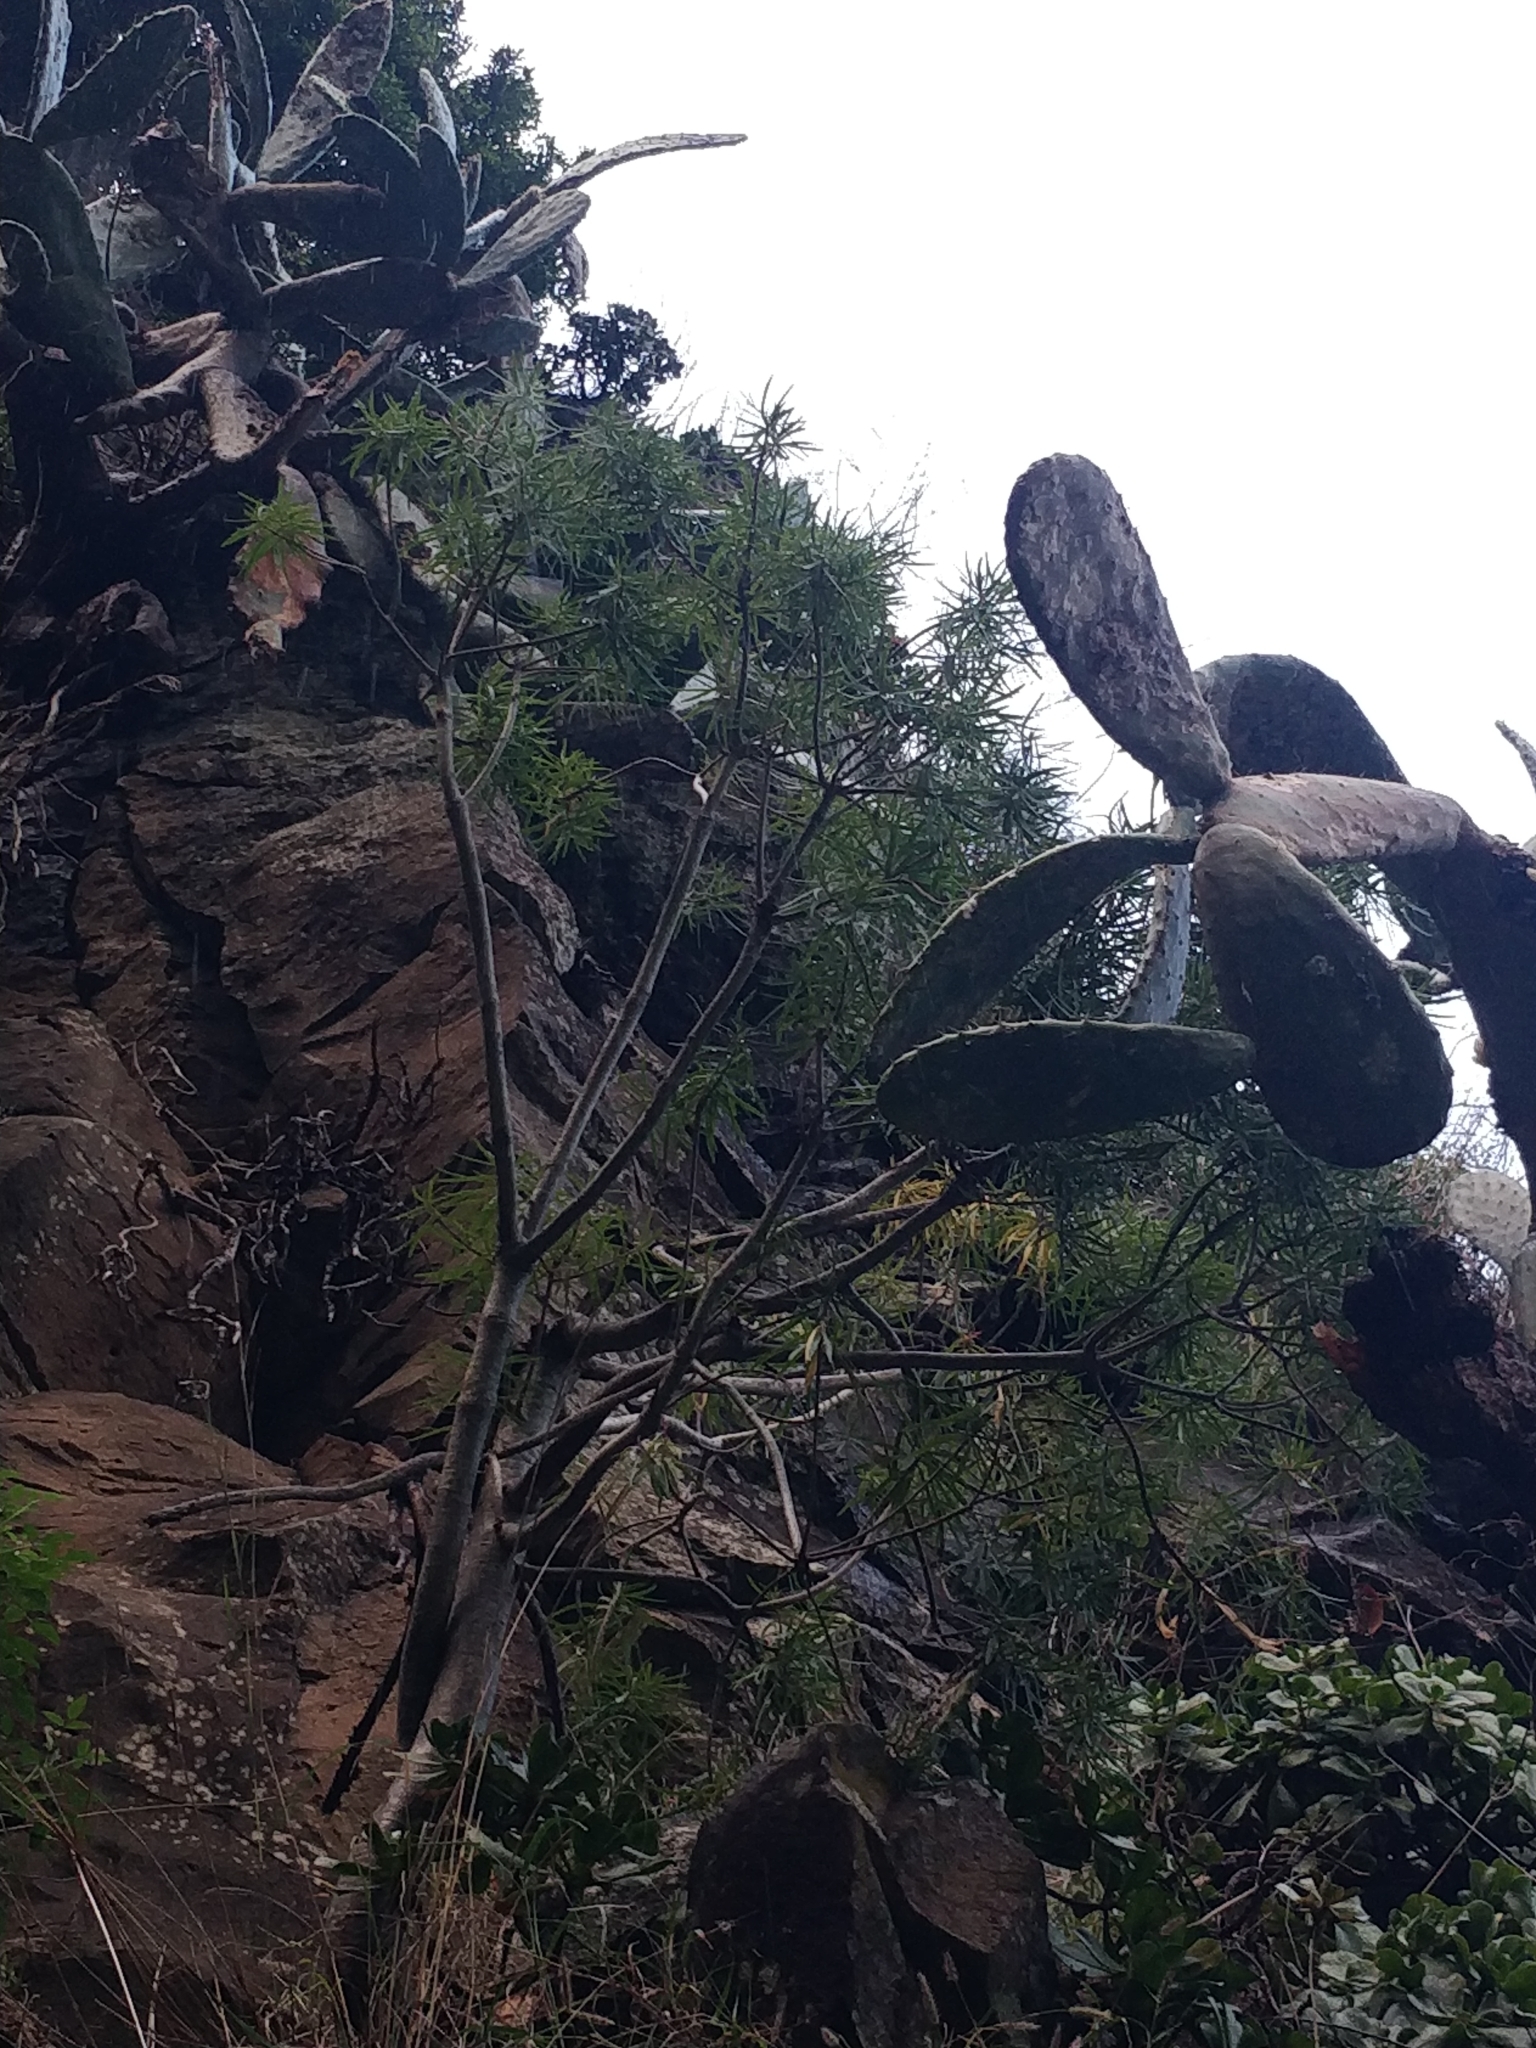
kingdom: Plantae
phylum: Tracheophyta
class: Magnoliopsida
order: Malpighiales
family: Euphorbiaceae
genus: Euphorbia
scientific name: Euphorbia piscatoria
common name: Fish-stunning spurge
